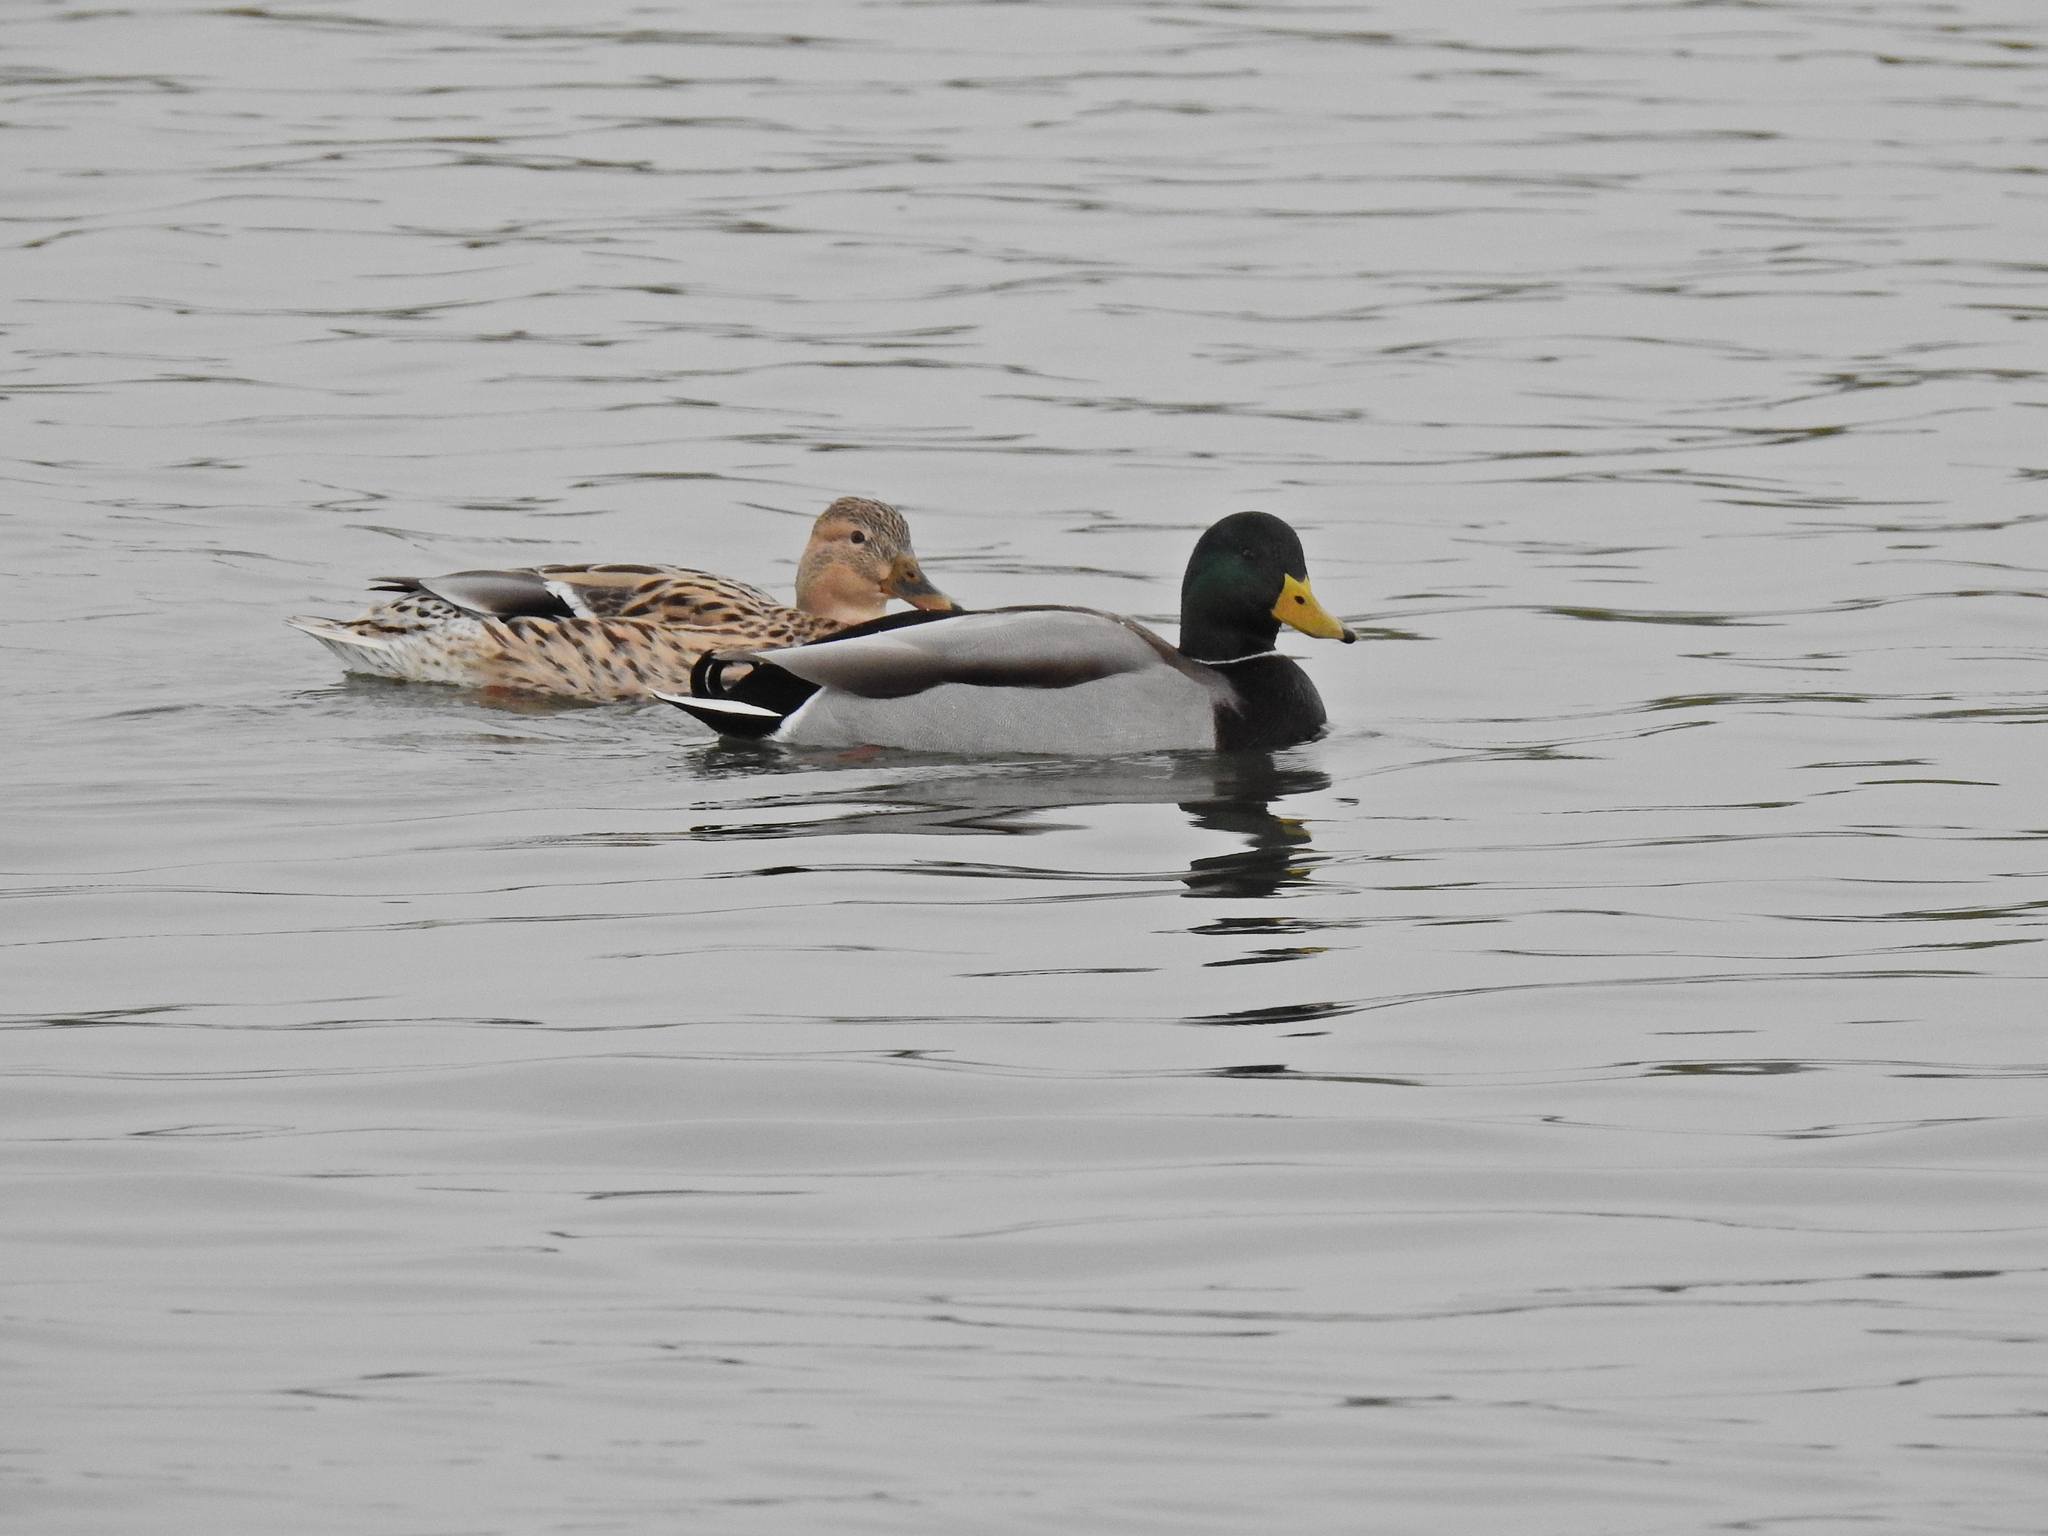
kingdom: Animalia
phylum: Chordata
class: Aves
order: Anseriformes
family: Anatidae
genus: Anas
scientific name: Anas platyrhynchos
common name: Mallard
